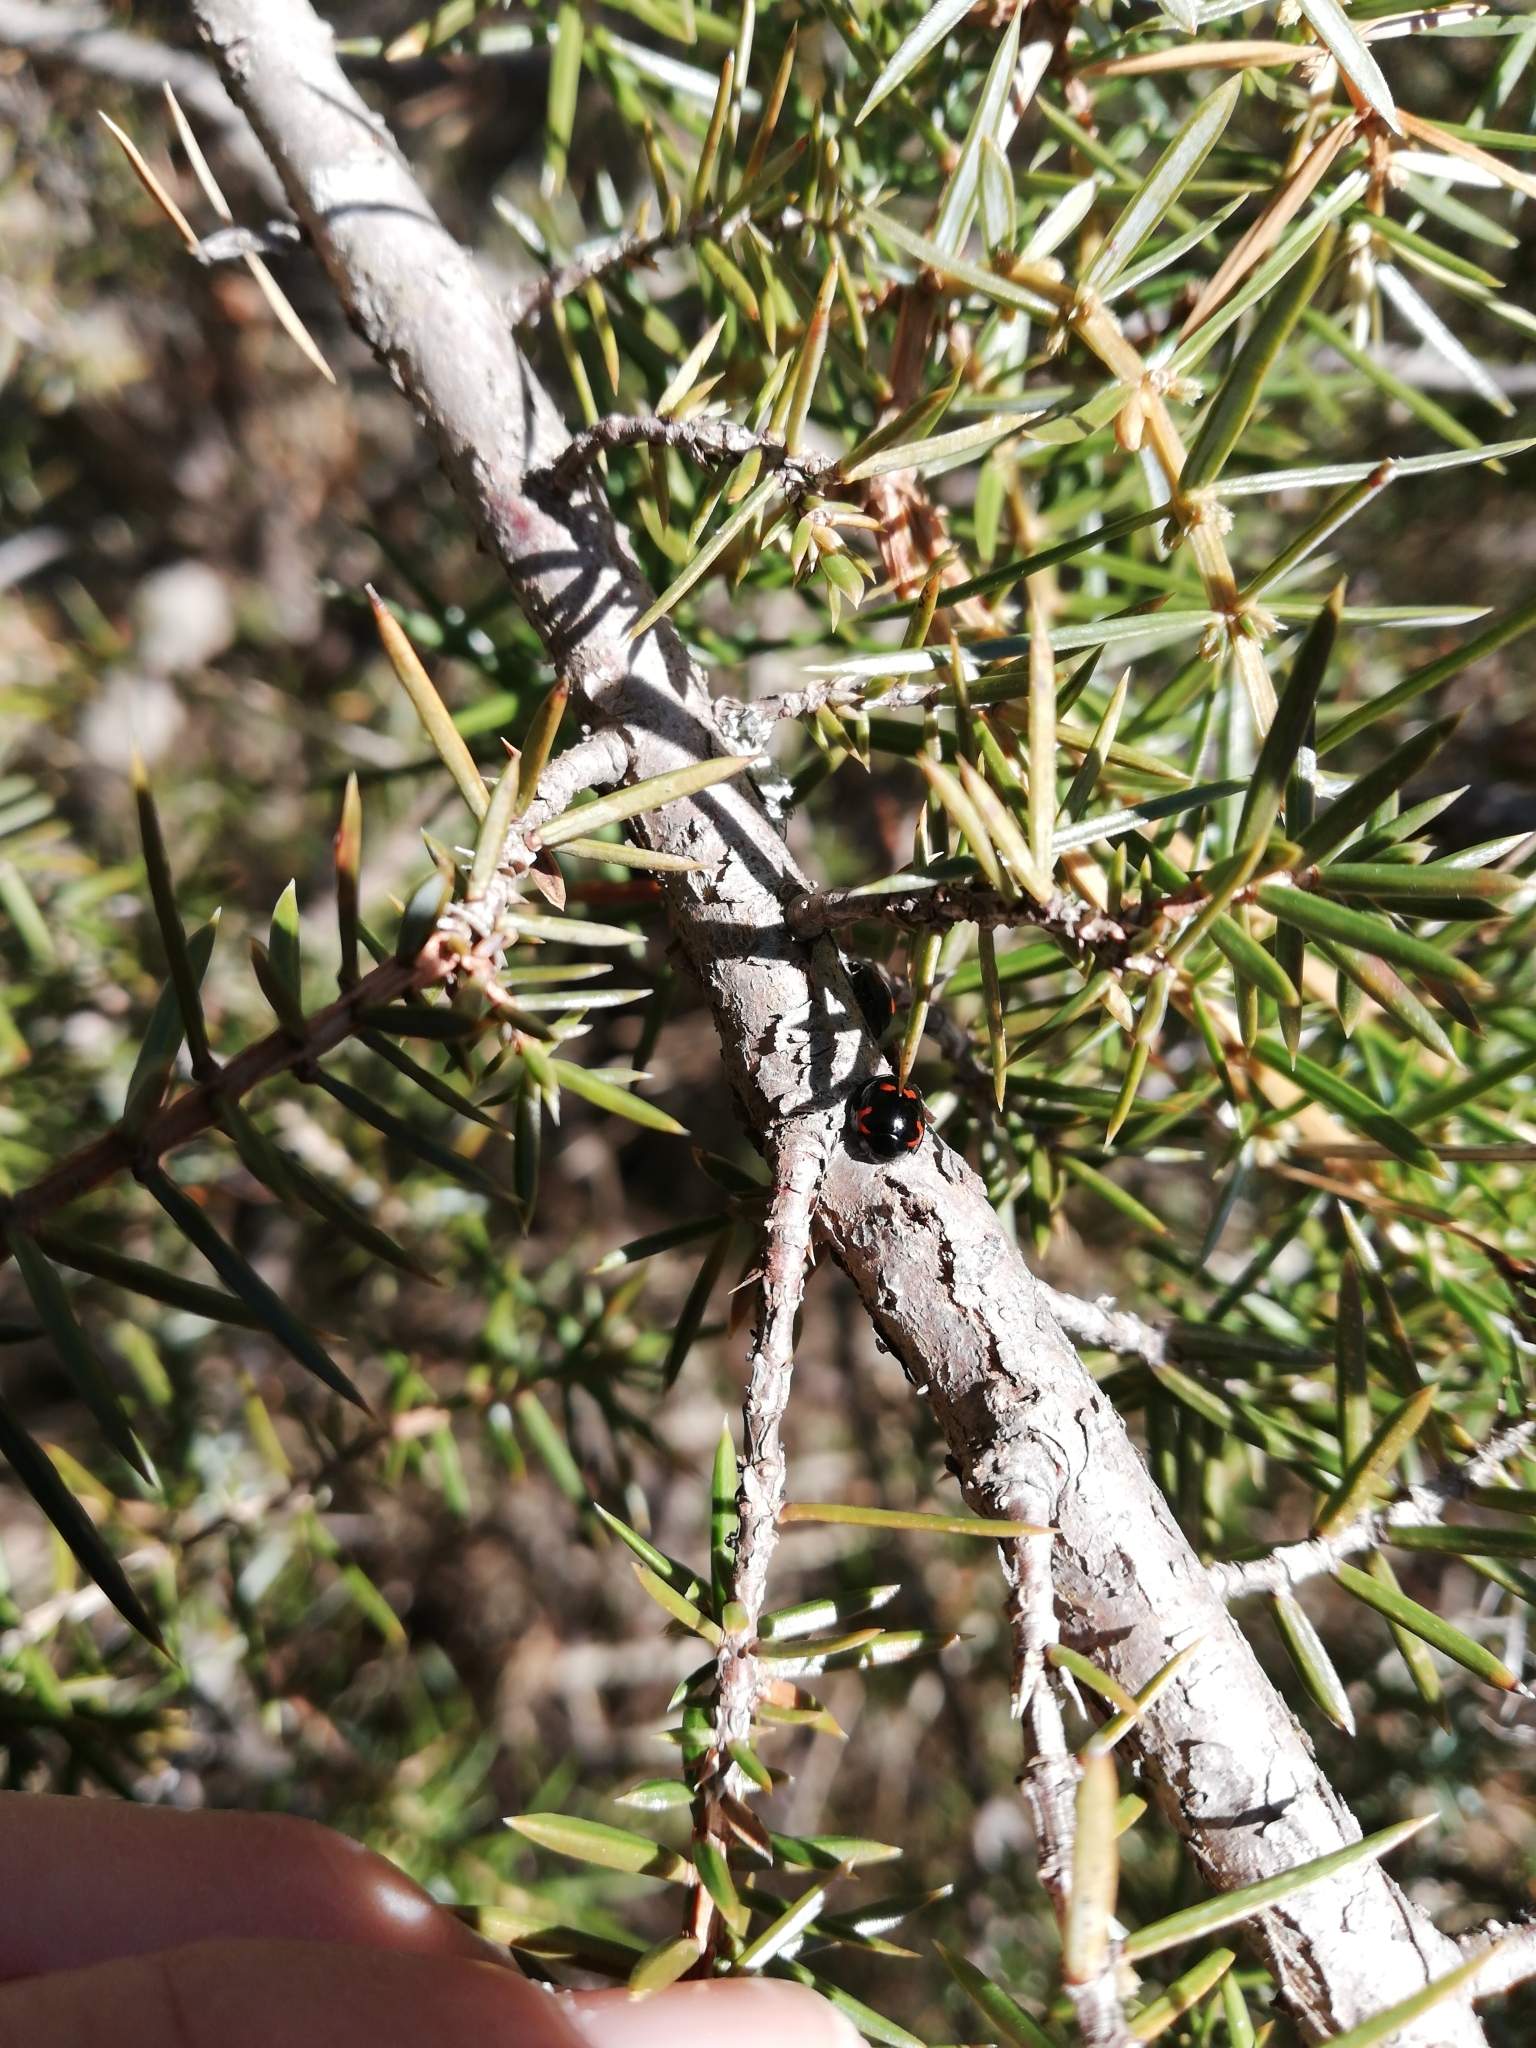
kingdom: Animalia
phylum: Arthropoda
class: Insecta
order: Coleoptera
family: Coccinellidae
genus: Brumus
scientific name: Brumus quadripustulatus
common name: Ladybird beetle
